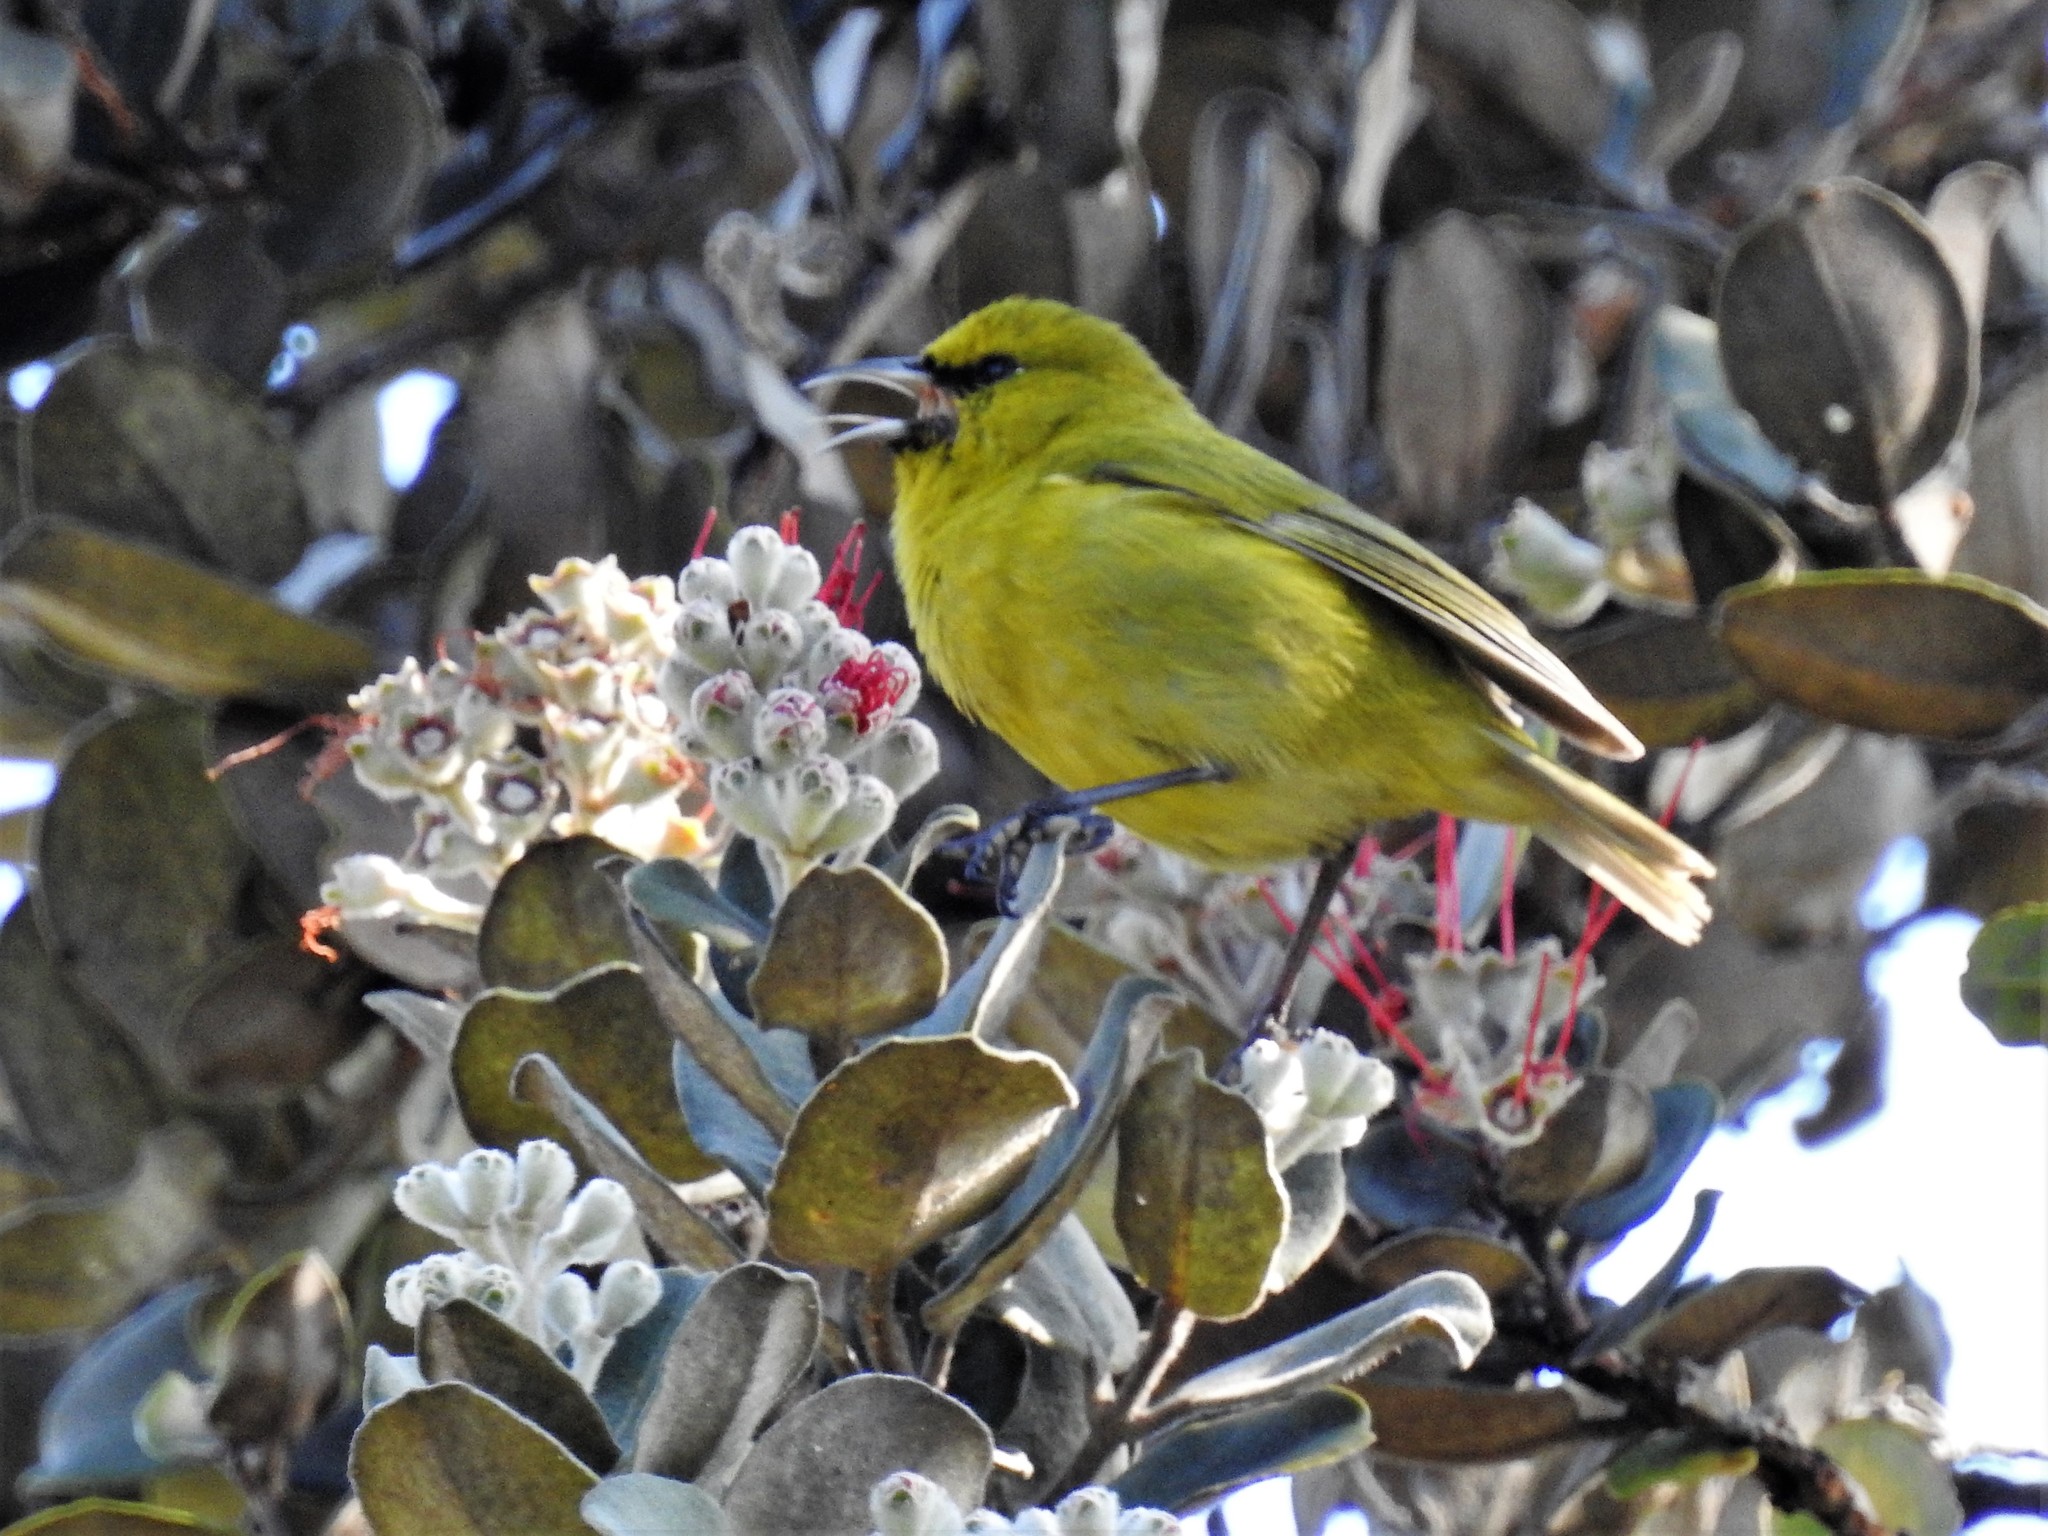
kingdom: Animalia
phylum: Chordata
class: Aves
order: Passeriformes
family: Fringillidae
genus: Chlorodrepanis
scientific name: Chlorodrepanis virens
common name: Hawaii amakihi
